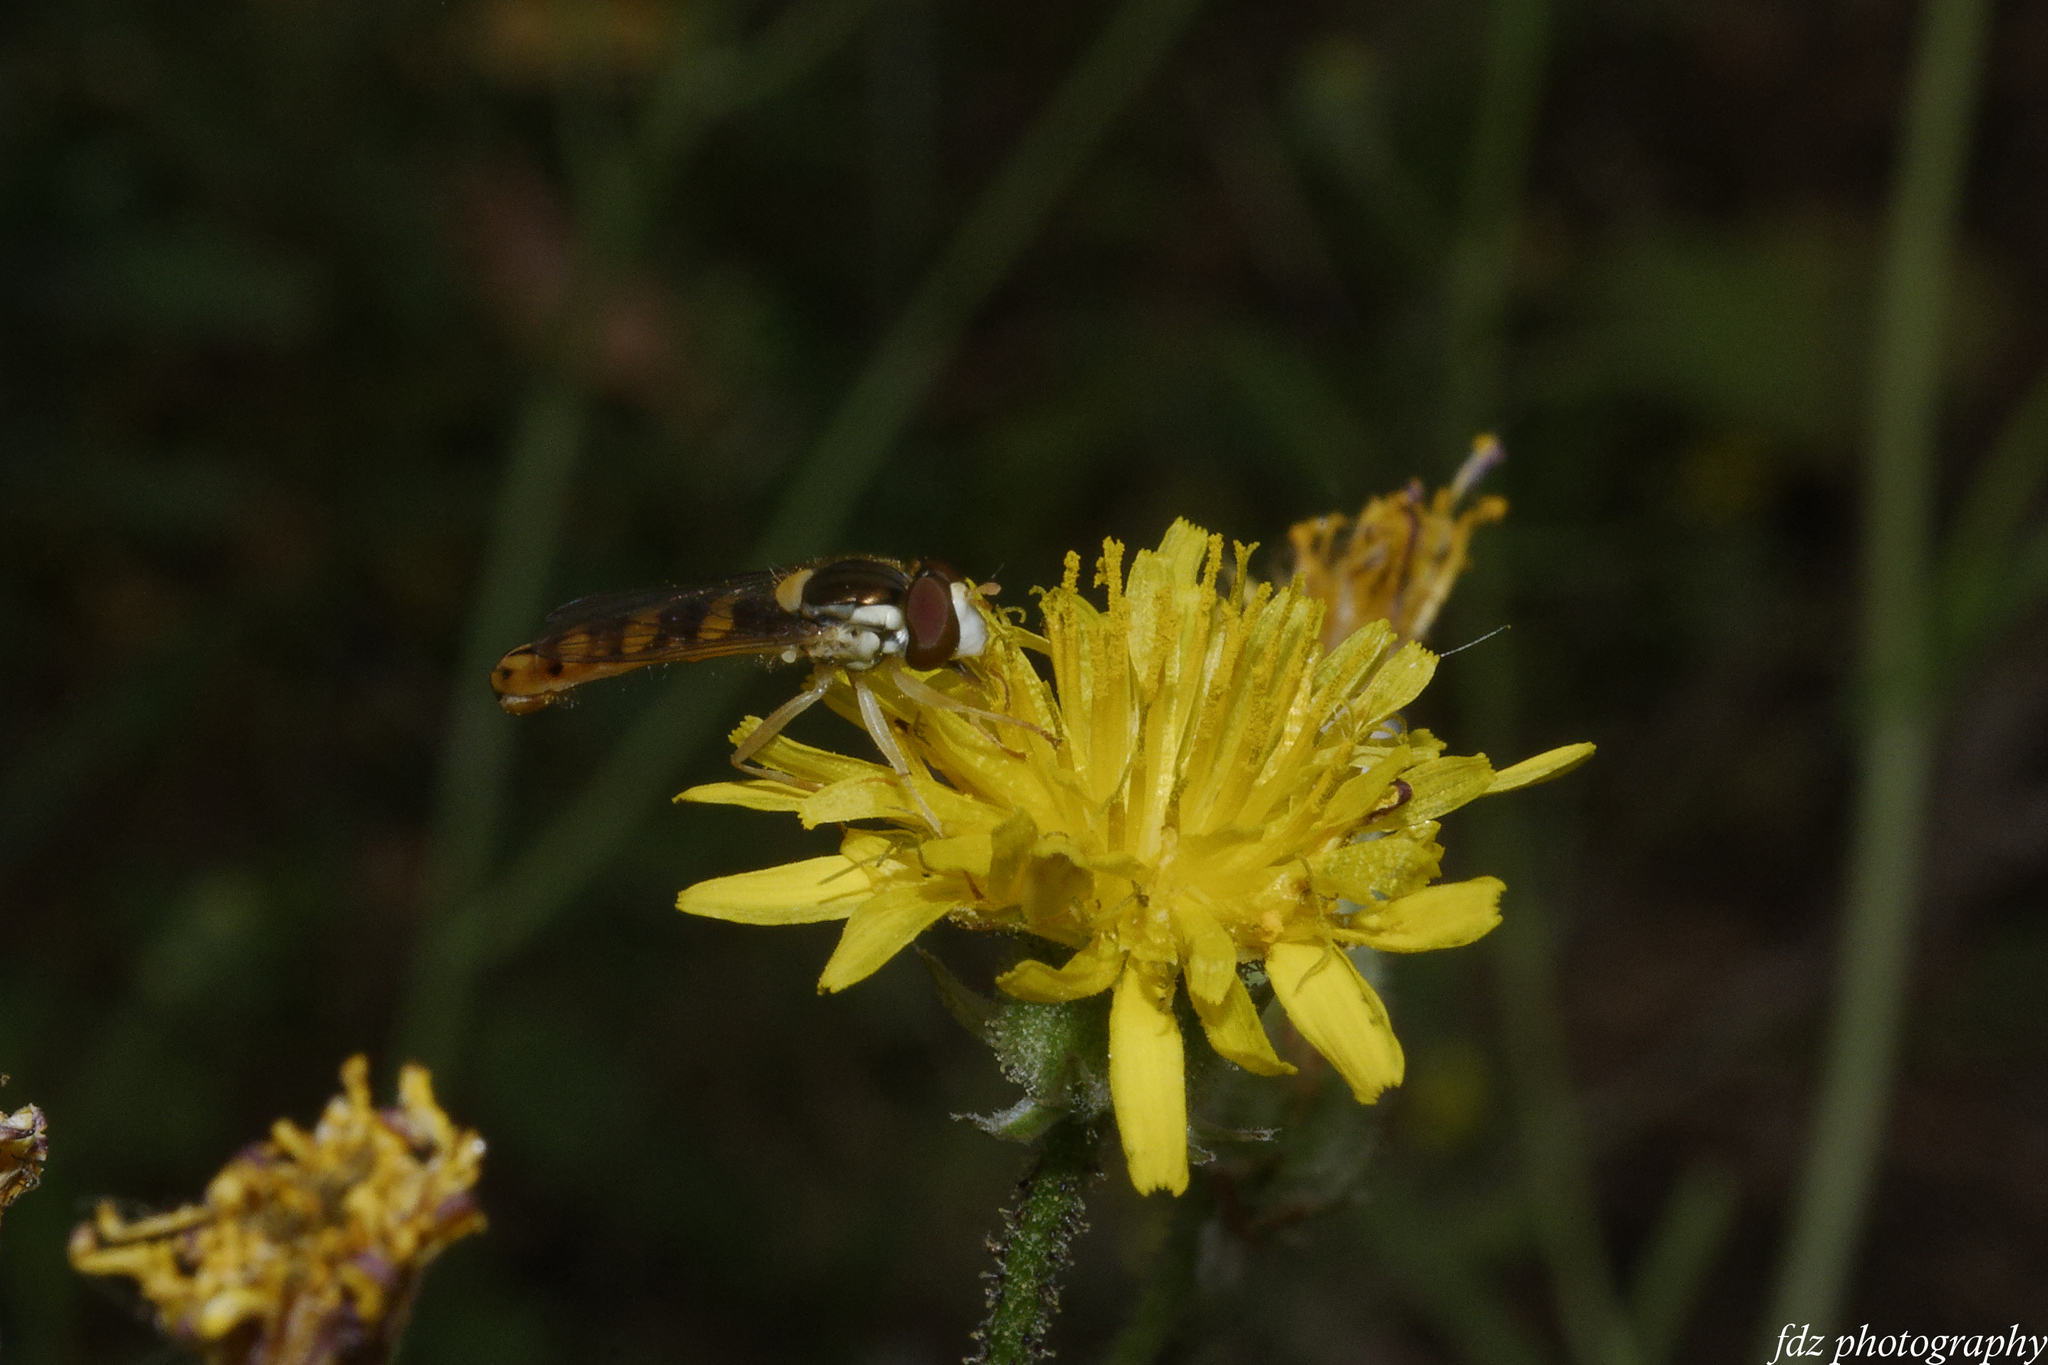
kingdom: Animalia
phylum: Arthropoda
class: Insecta
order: Diptera
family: Syrphidae
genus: Sphaerophoria
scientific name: Sphaerophoria scripta
